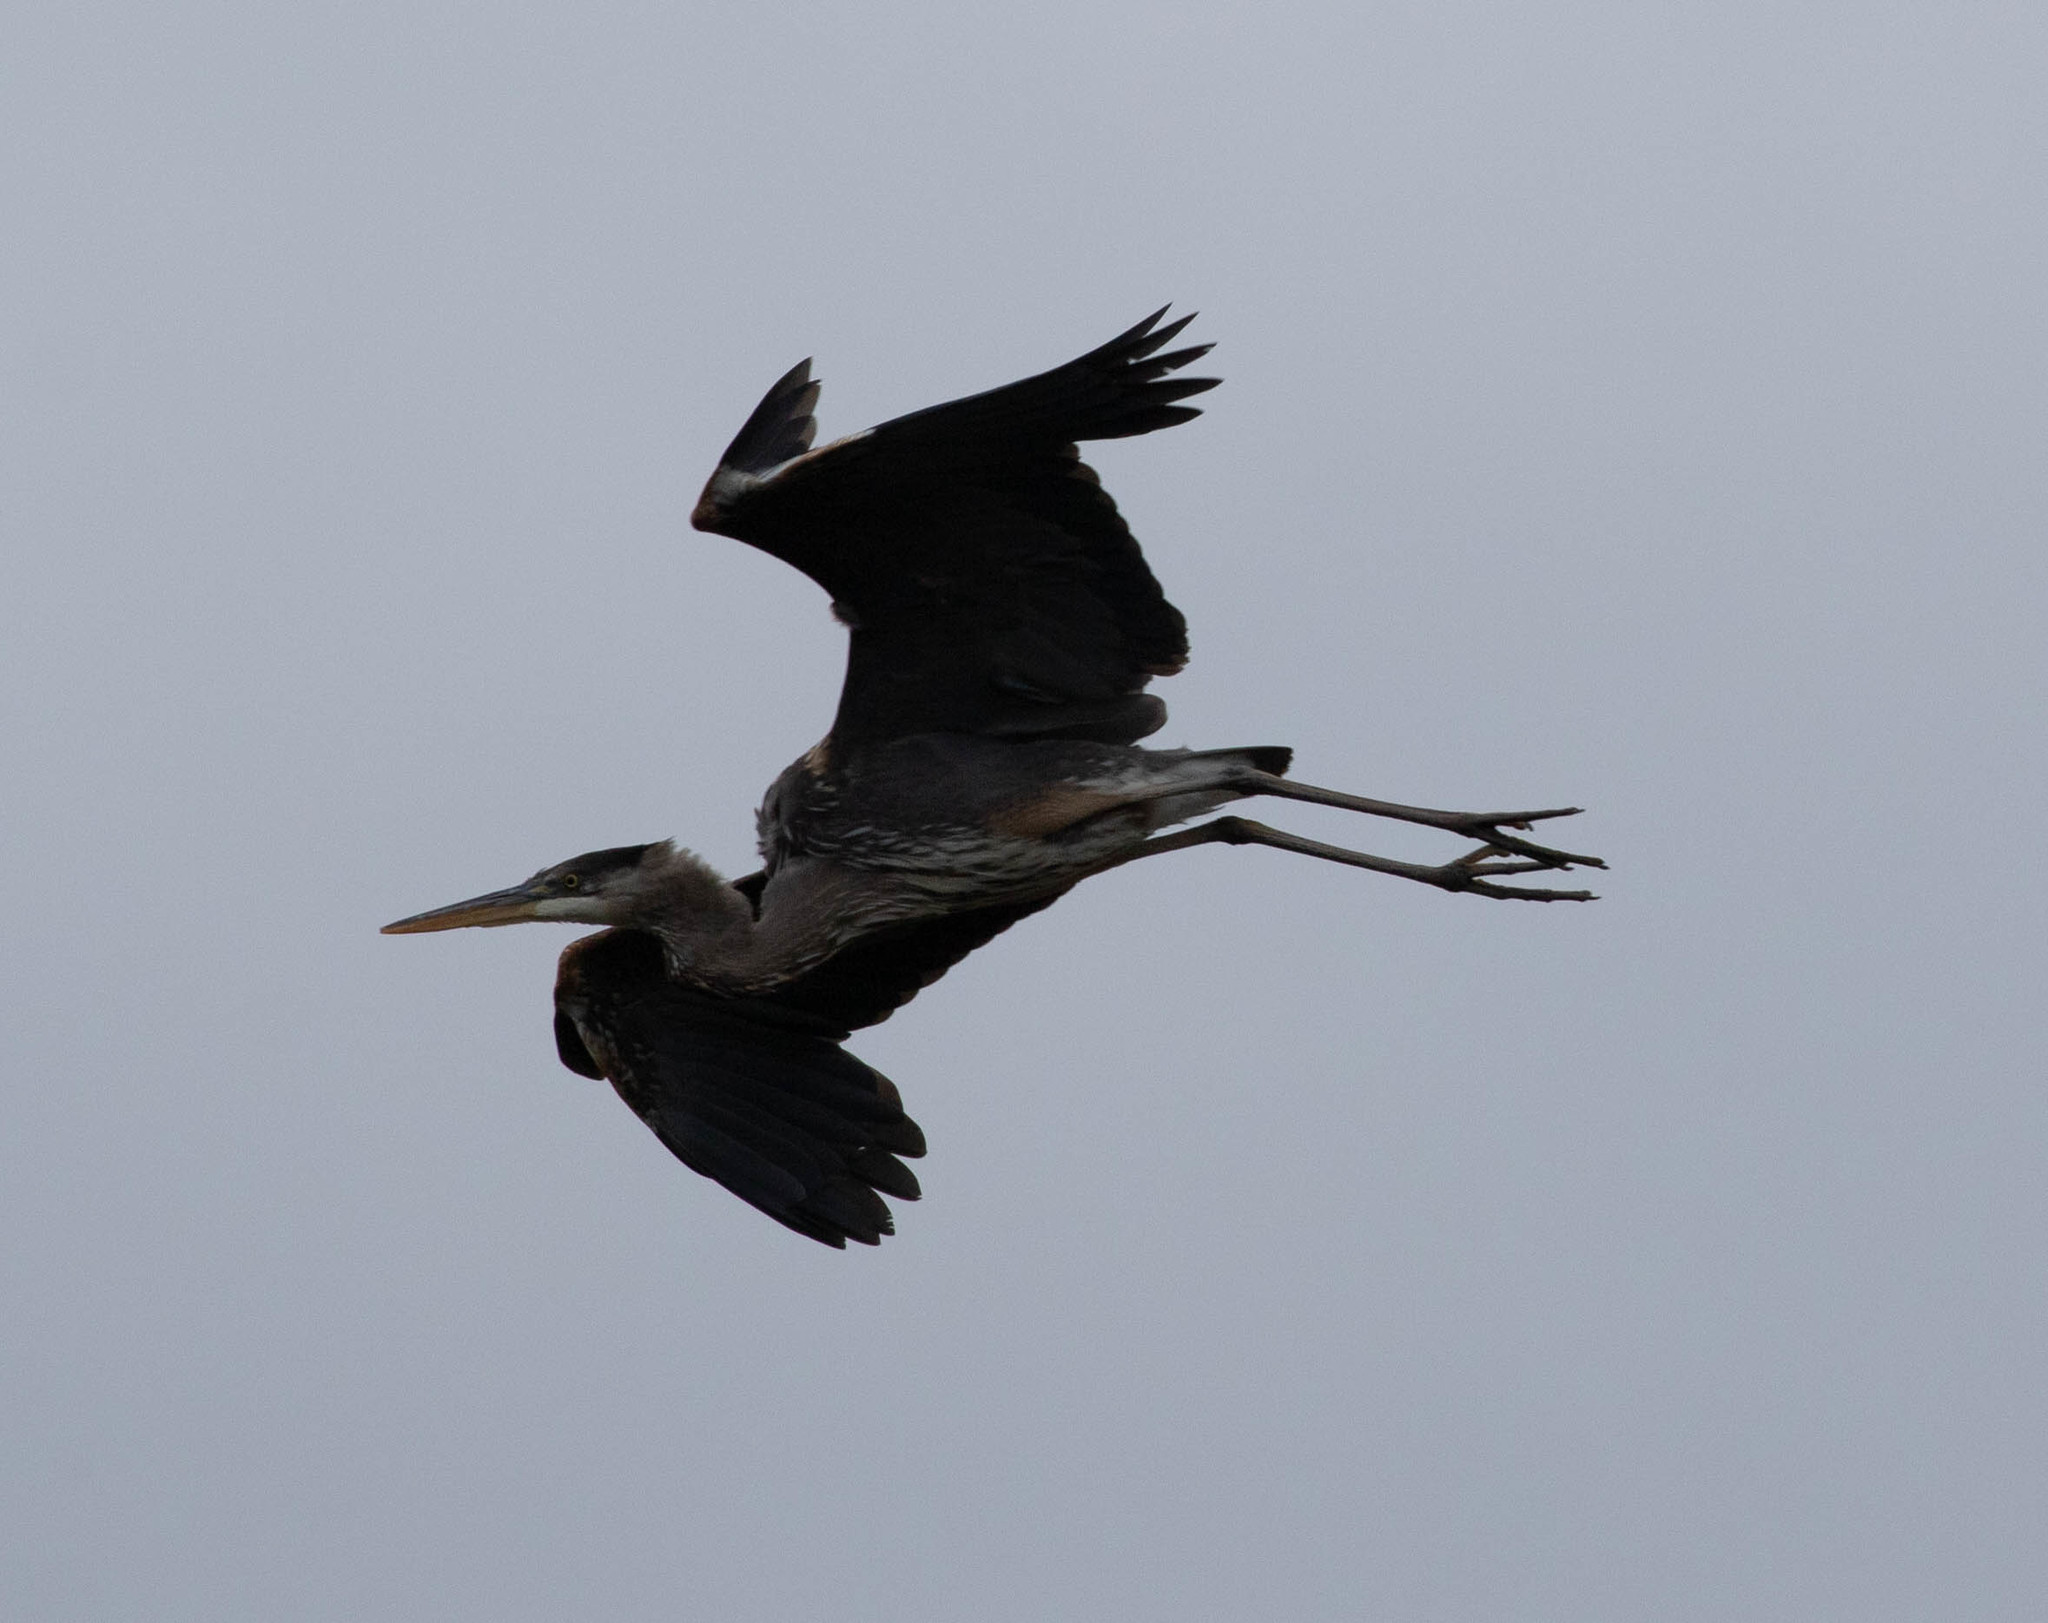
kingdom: Animalia
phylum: Chordata
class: Aves
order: Pelecaniformes
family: Ardeidae
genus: Ardea
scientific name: Ardea herodias
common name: Great blue heron
